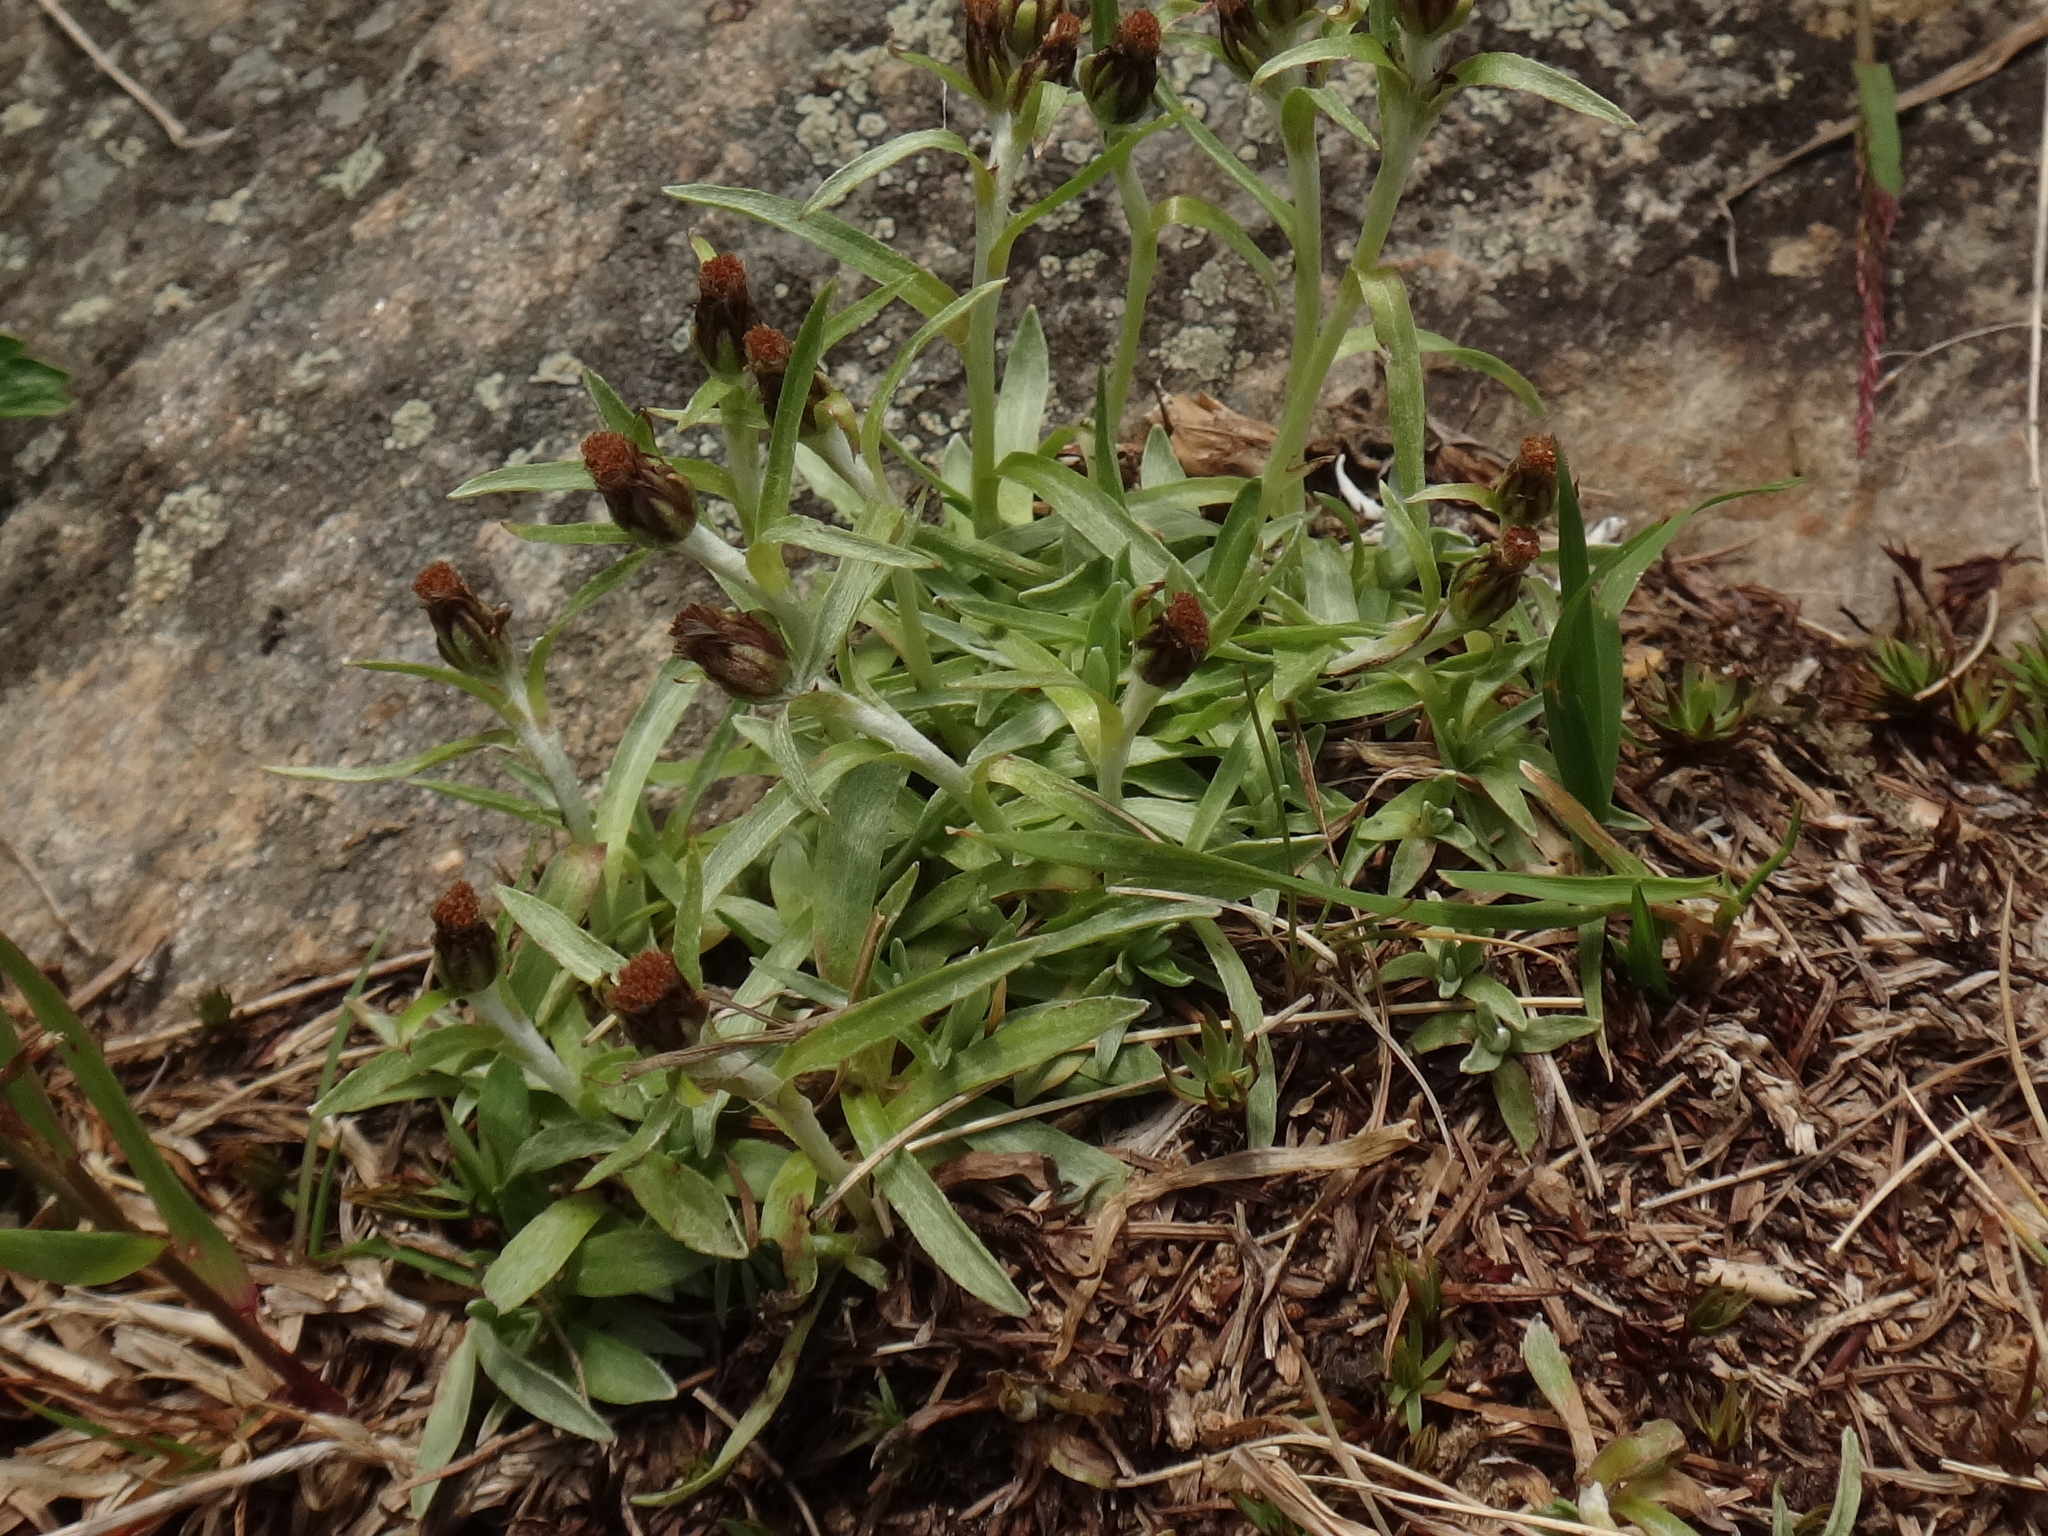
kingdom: Plantae
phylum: Tracheophyta
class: Magnoliopsida
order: Asterales
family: Asteraceae
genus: Omalotheca
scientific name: Omalotheca supina
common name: Alpine arctic-cudweed
